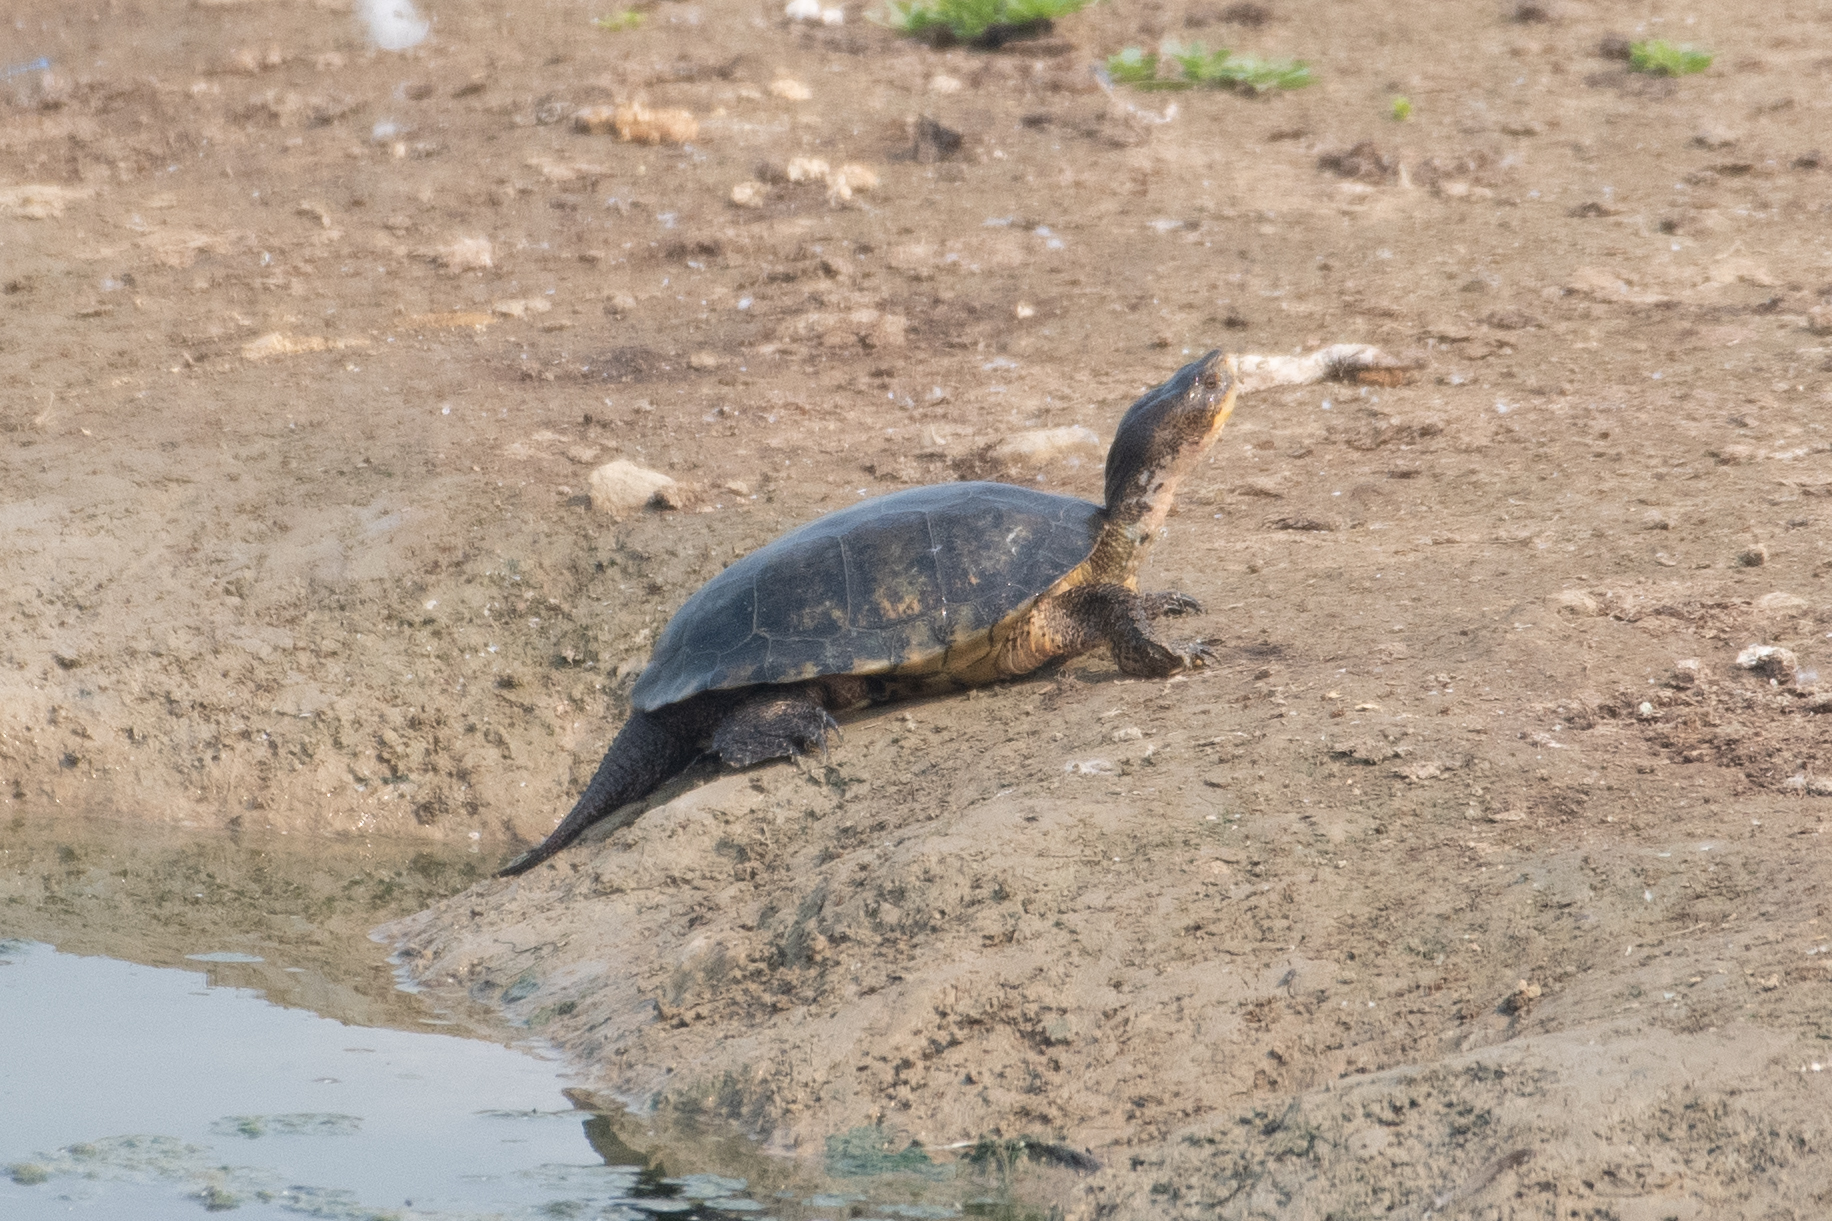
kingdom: Animalia
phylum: Chordata
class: Testudines
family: Emydidae
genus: Actinemys
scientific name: Actinemys marmorata
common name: Western pond turtle
